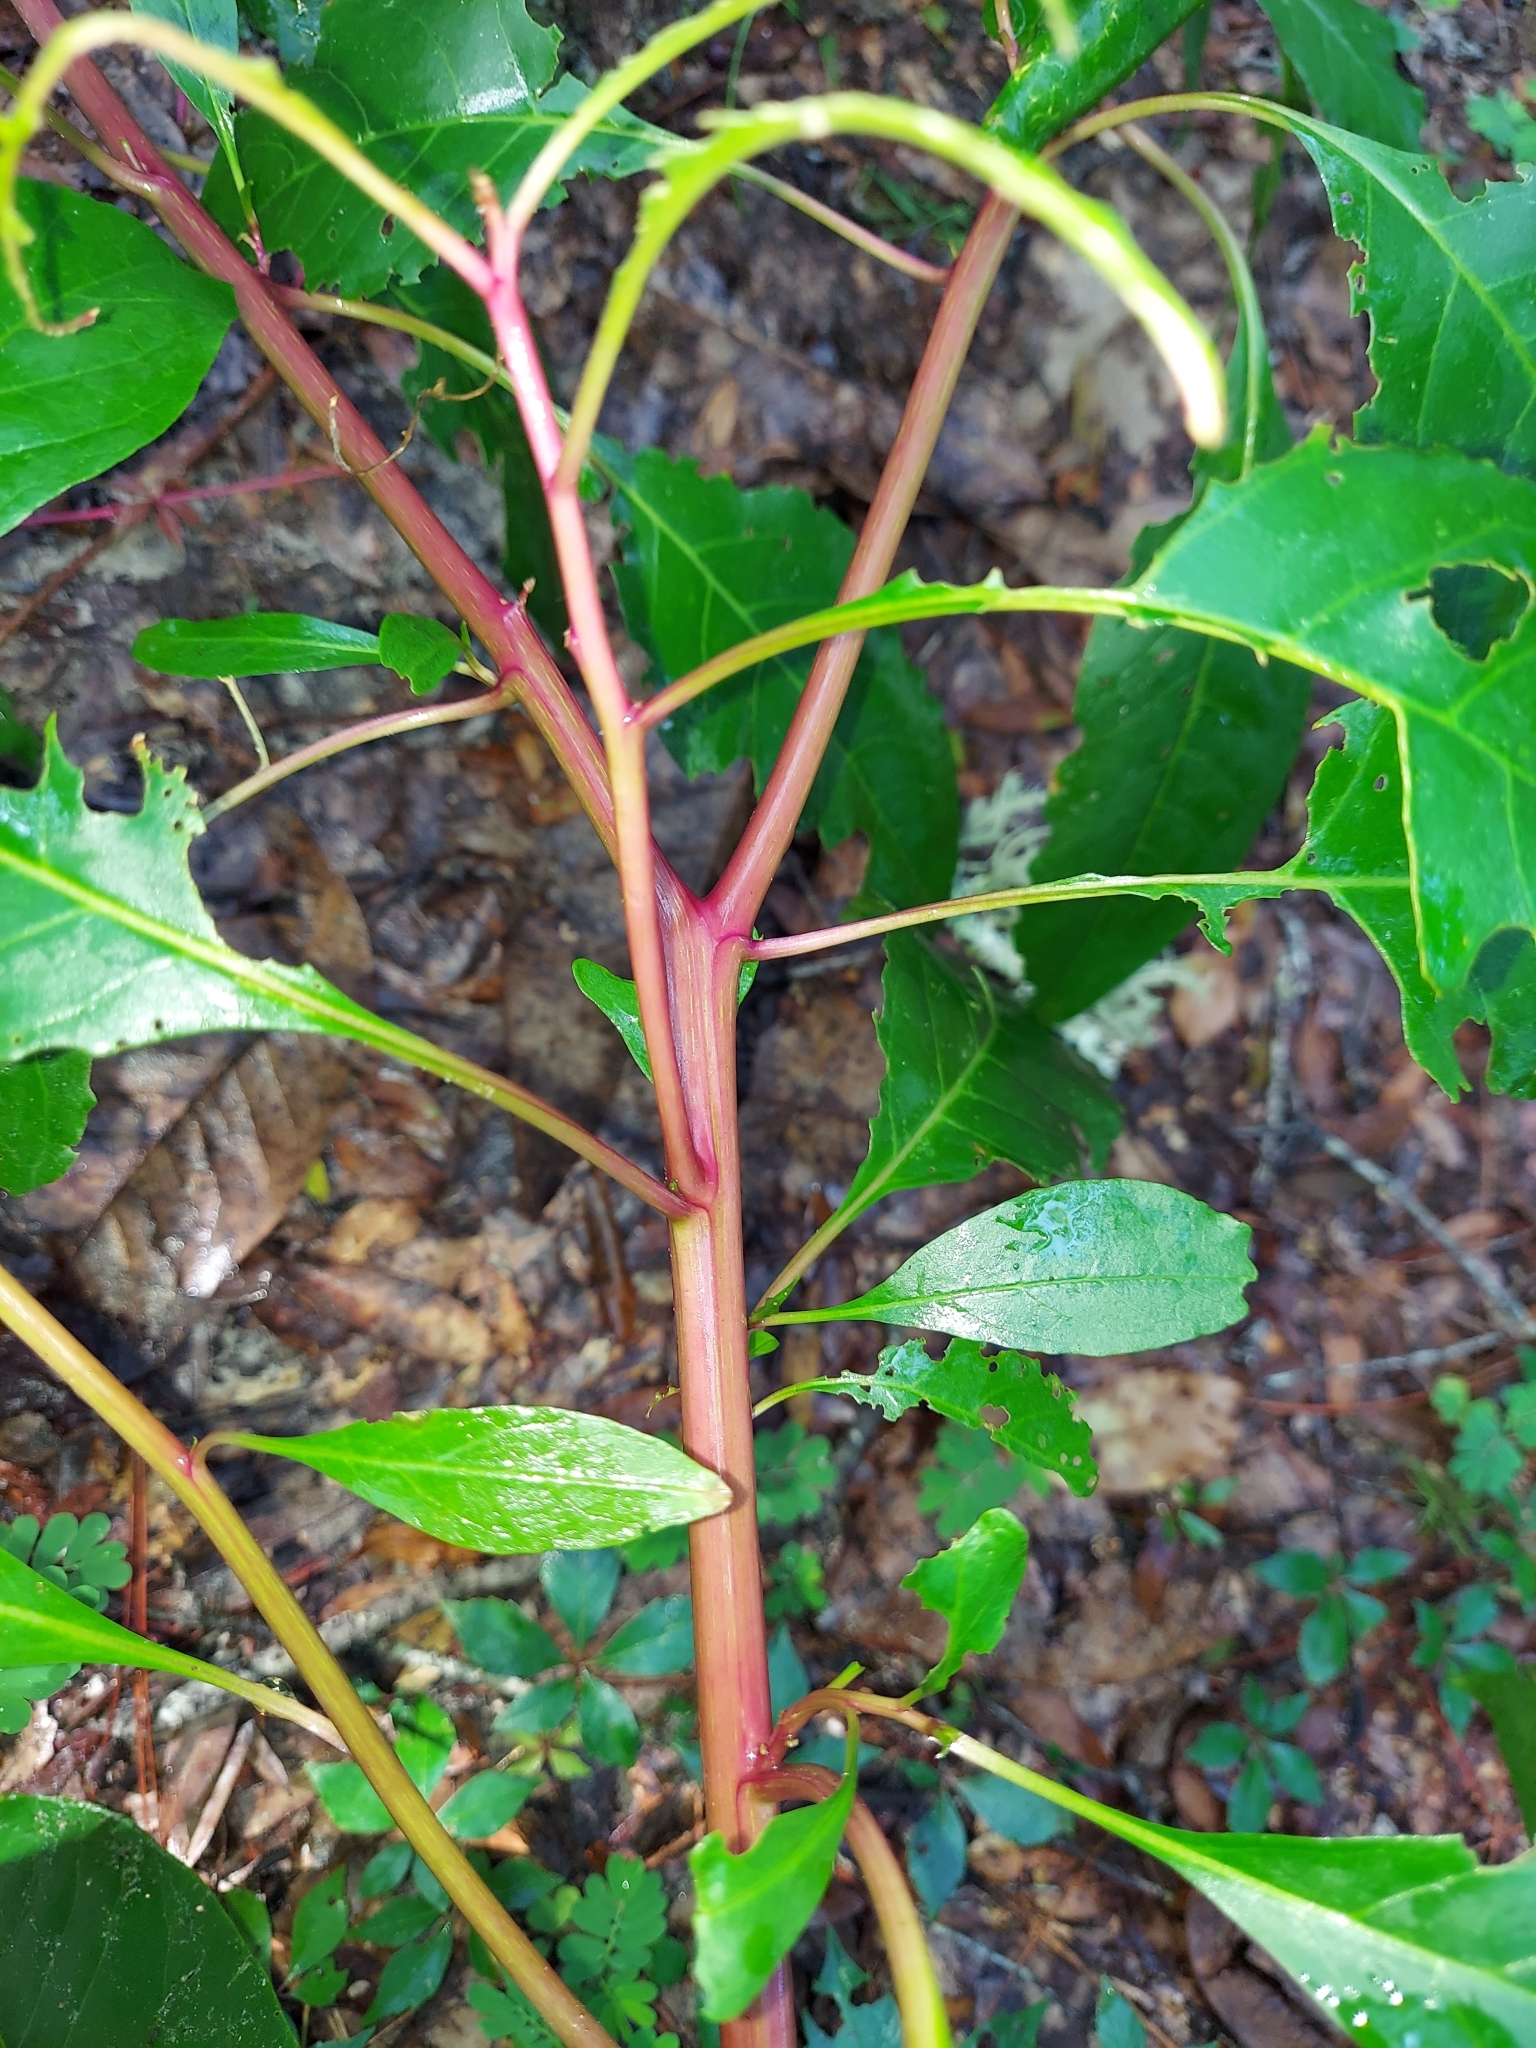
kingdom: Plantae
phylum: Tracheophyta
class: Magnoliopsida
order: Caryophyllales
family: Phytolaccaceae
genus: Phytolacca
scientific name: Phytolacca americana
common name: American pokeweed
